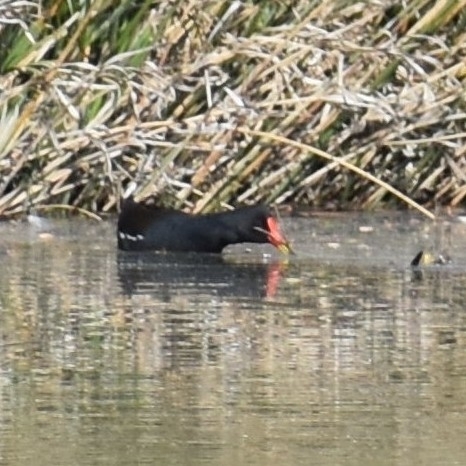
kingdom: Animalia
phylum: Chordata
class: Aves
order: Gruiformes
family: Rallidae
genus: Gallinula
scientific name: Gallinula chloropus
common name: Common moorhen
